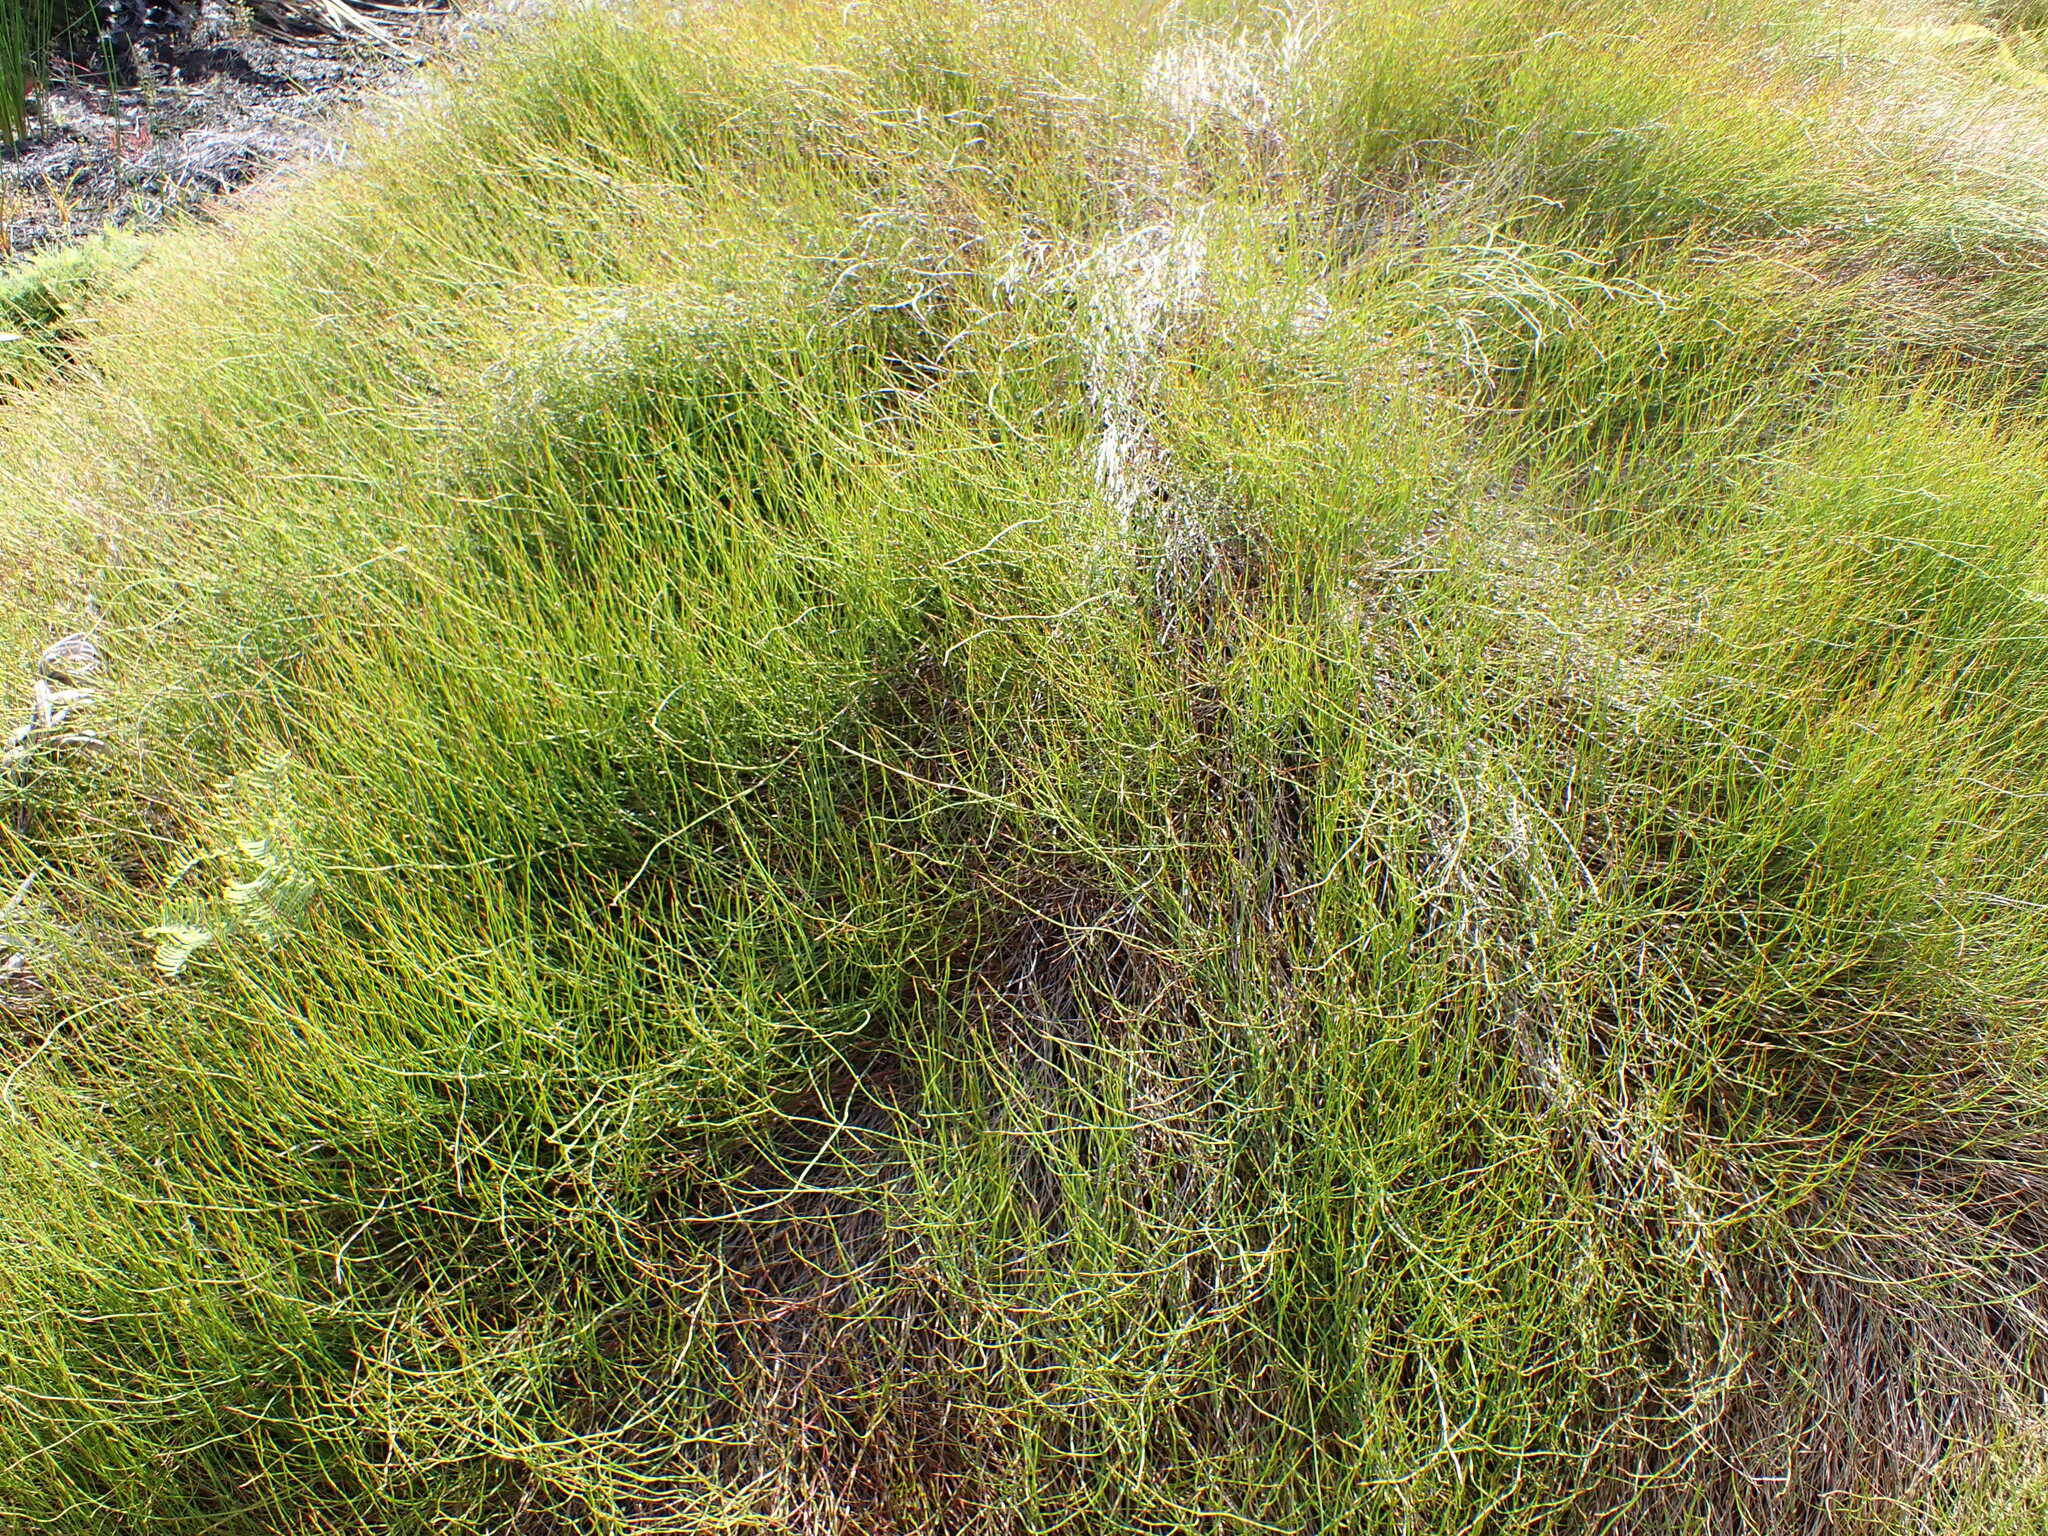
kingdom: Plantae
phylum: Tracheophyta
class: Liliopsida
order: Poales
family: Restionaceae
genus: Empodisma
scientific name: Empodisma robustum
